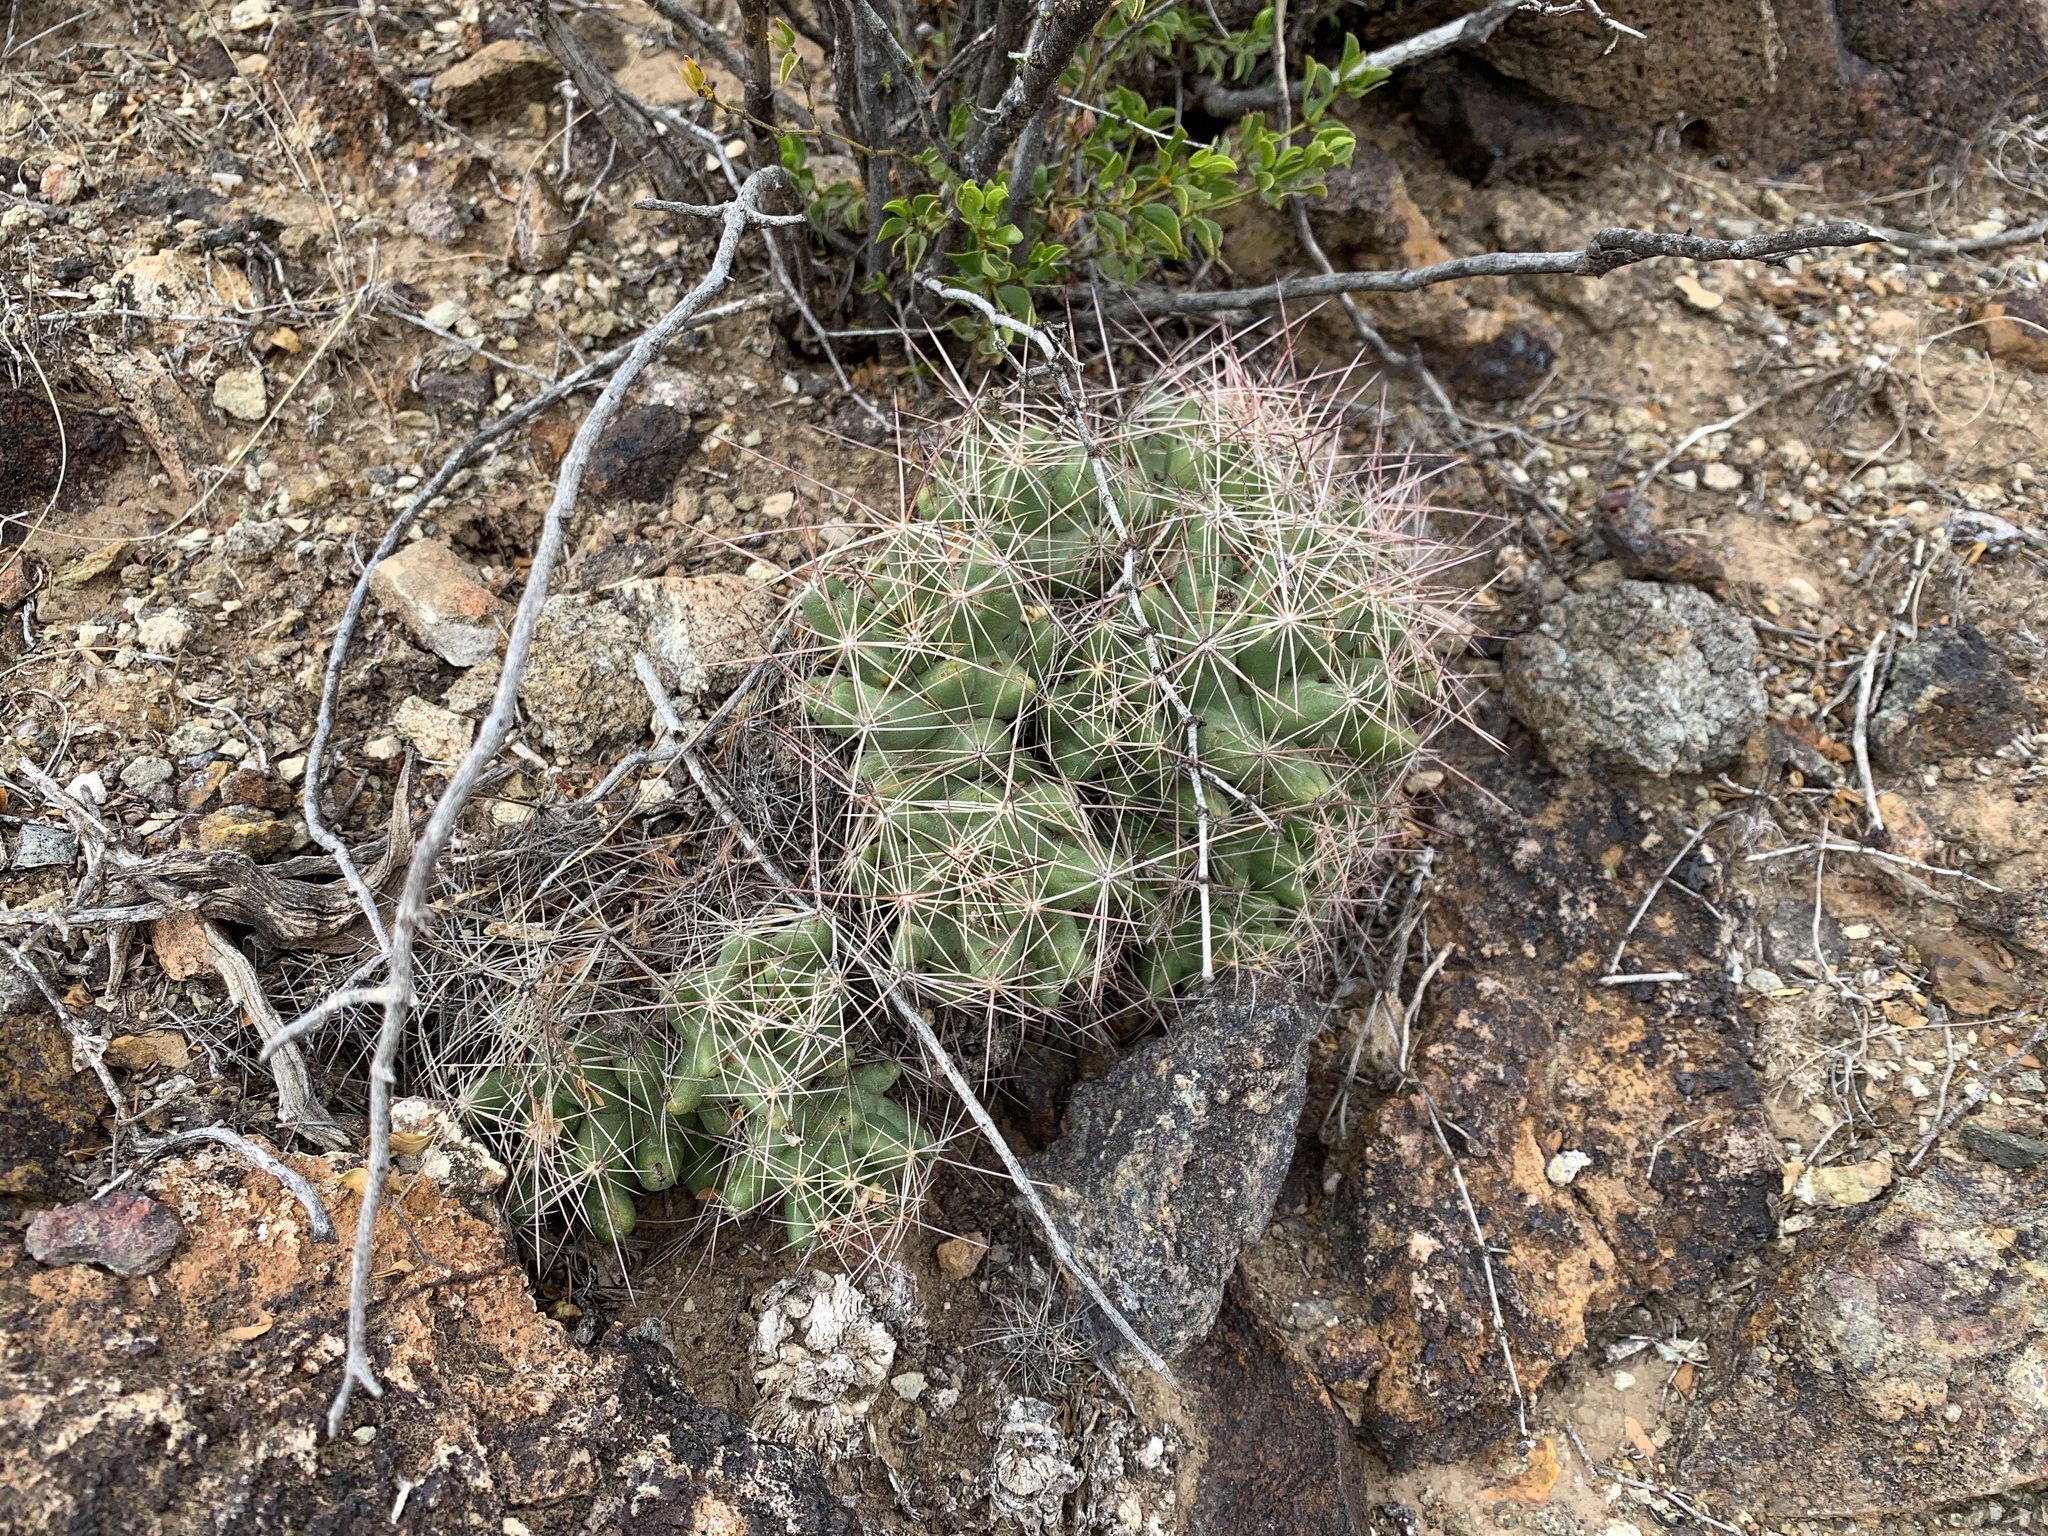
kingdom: Plantae
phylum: Tracheophyta
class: Magnoliopsida
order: Caryophyllales
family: Cactaceae
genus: Coryphantha
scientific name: Coryphantha macromeris
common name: Nipple beehive cactus
